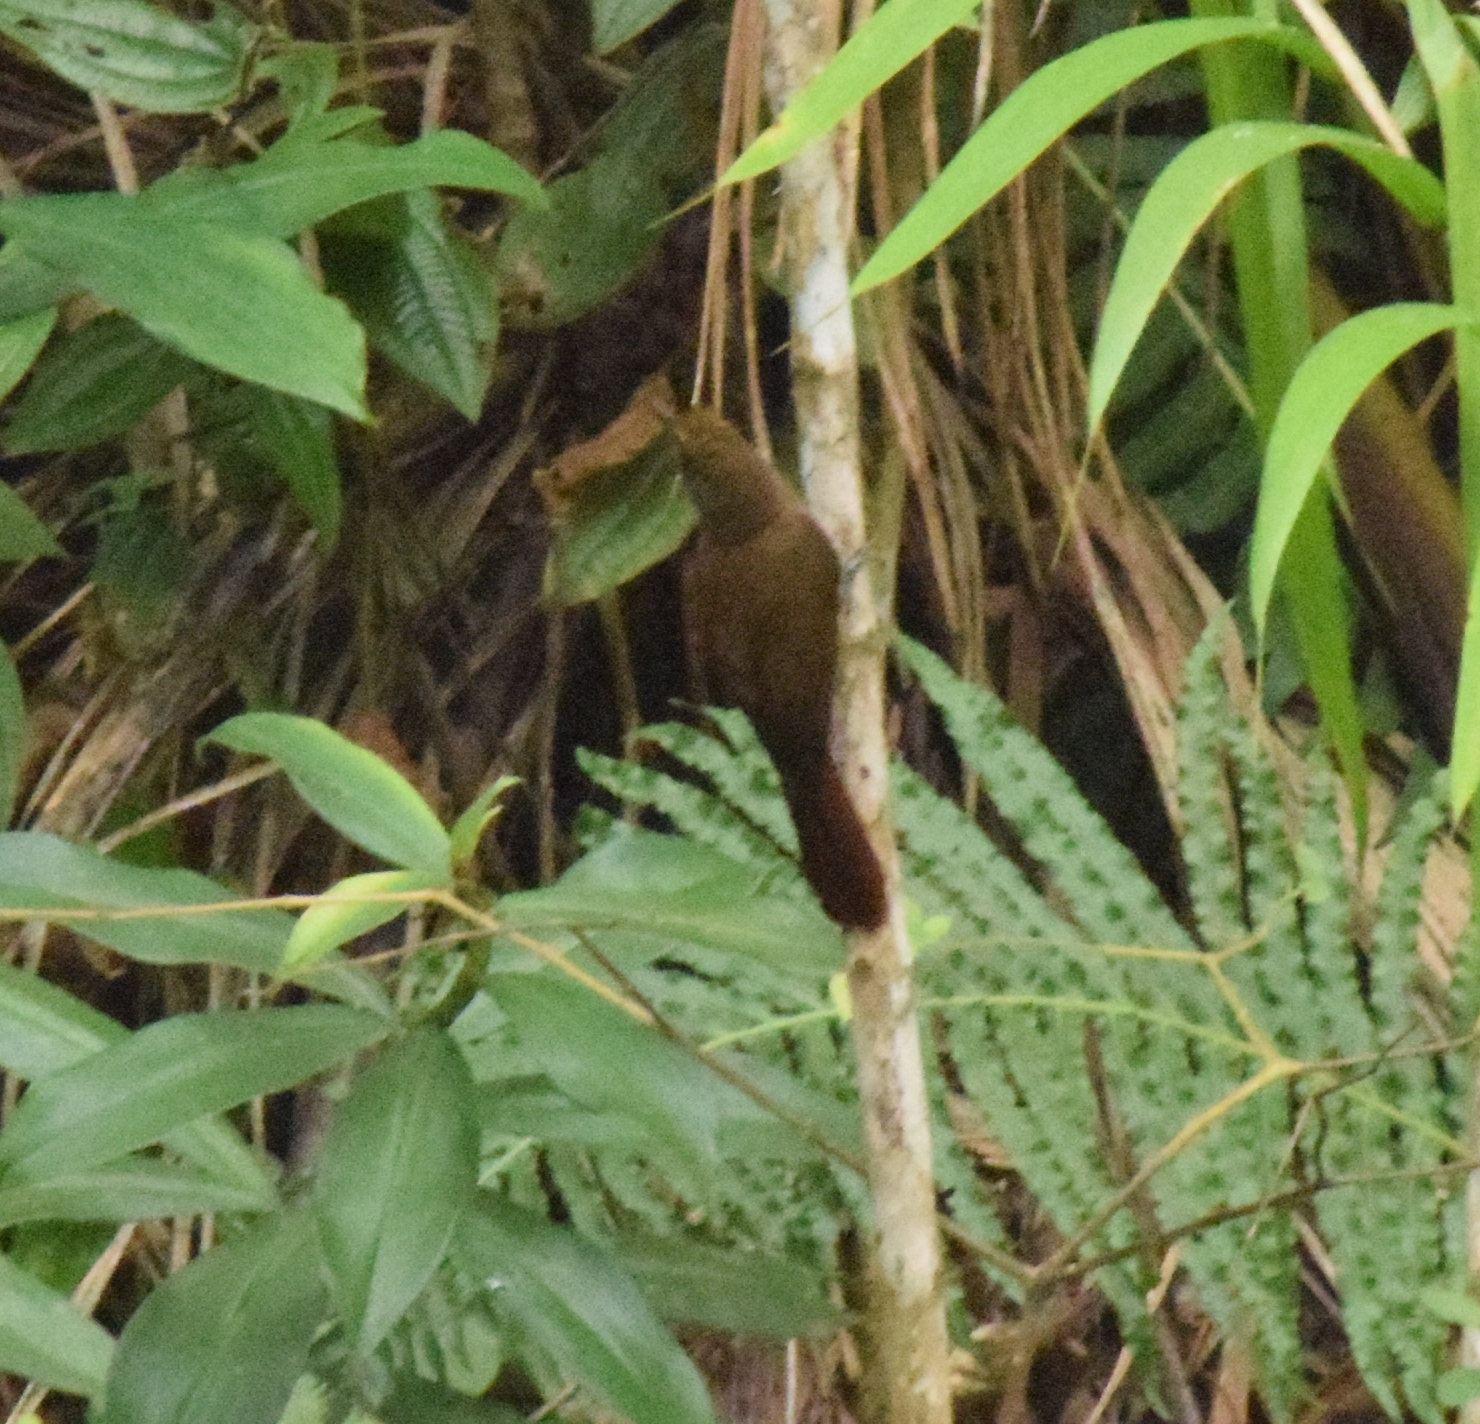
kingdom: Animalia
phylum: Chordata
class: Aves
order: Passeriformes
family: Furnariidae
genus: Dendrocincla
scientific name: Dendrocincla fuliginosa
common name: Plain-brown woodcreeper
